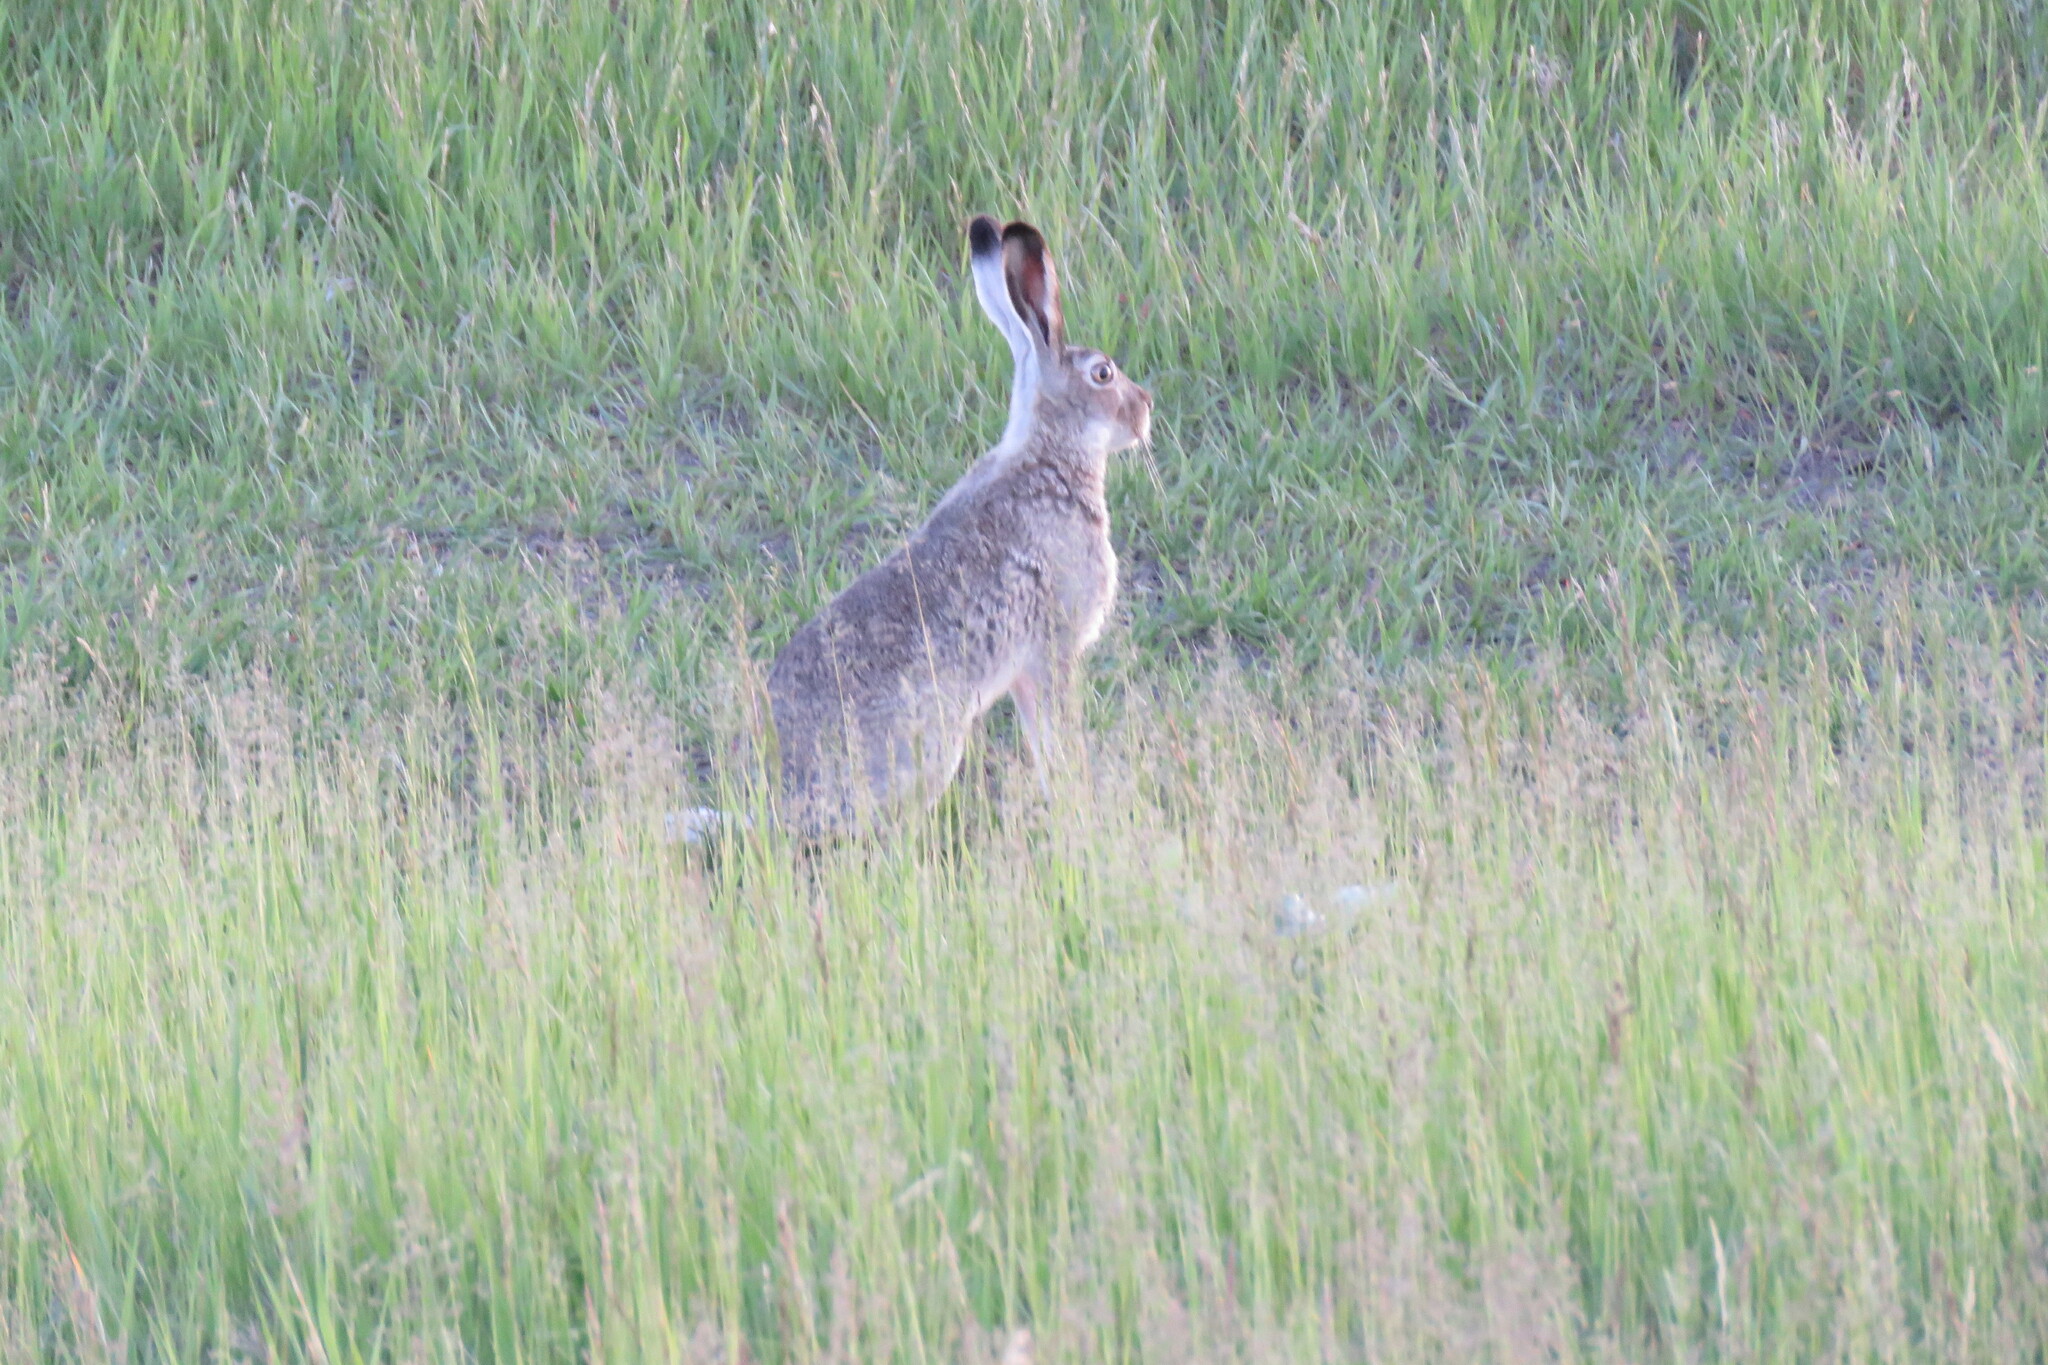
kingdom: Animalia
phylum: Chordata
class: Mammalia
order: Lagomorpha
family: Leporidae
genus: Lepus
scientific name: Lepus townsendii
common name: White-tailed jackrabbit
